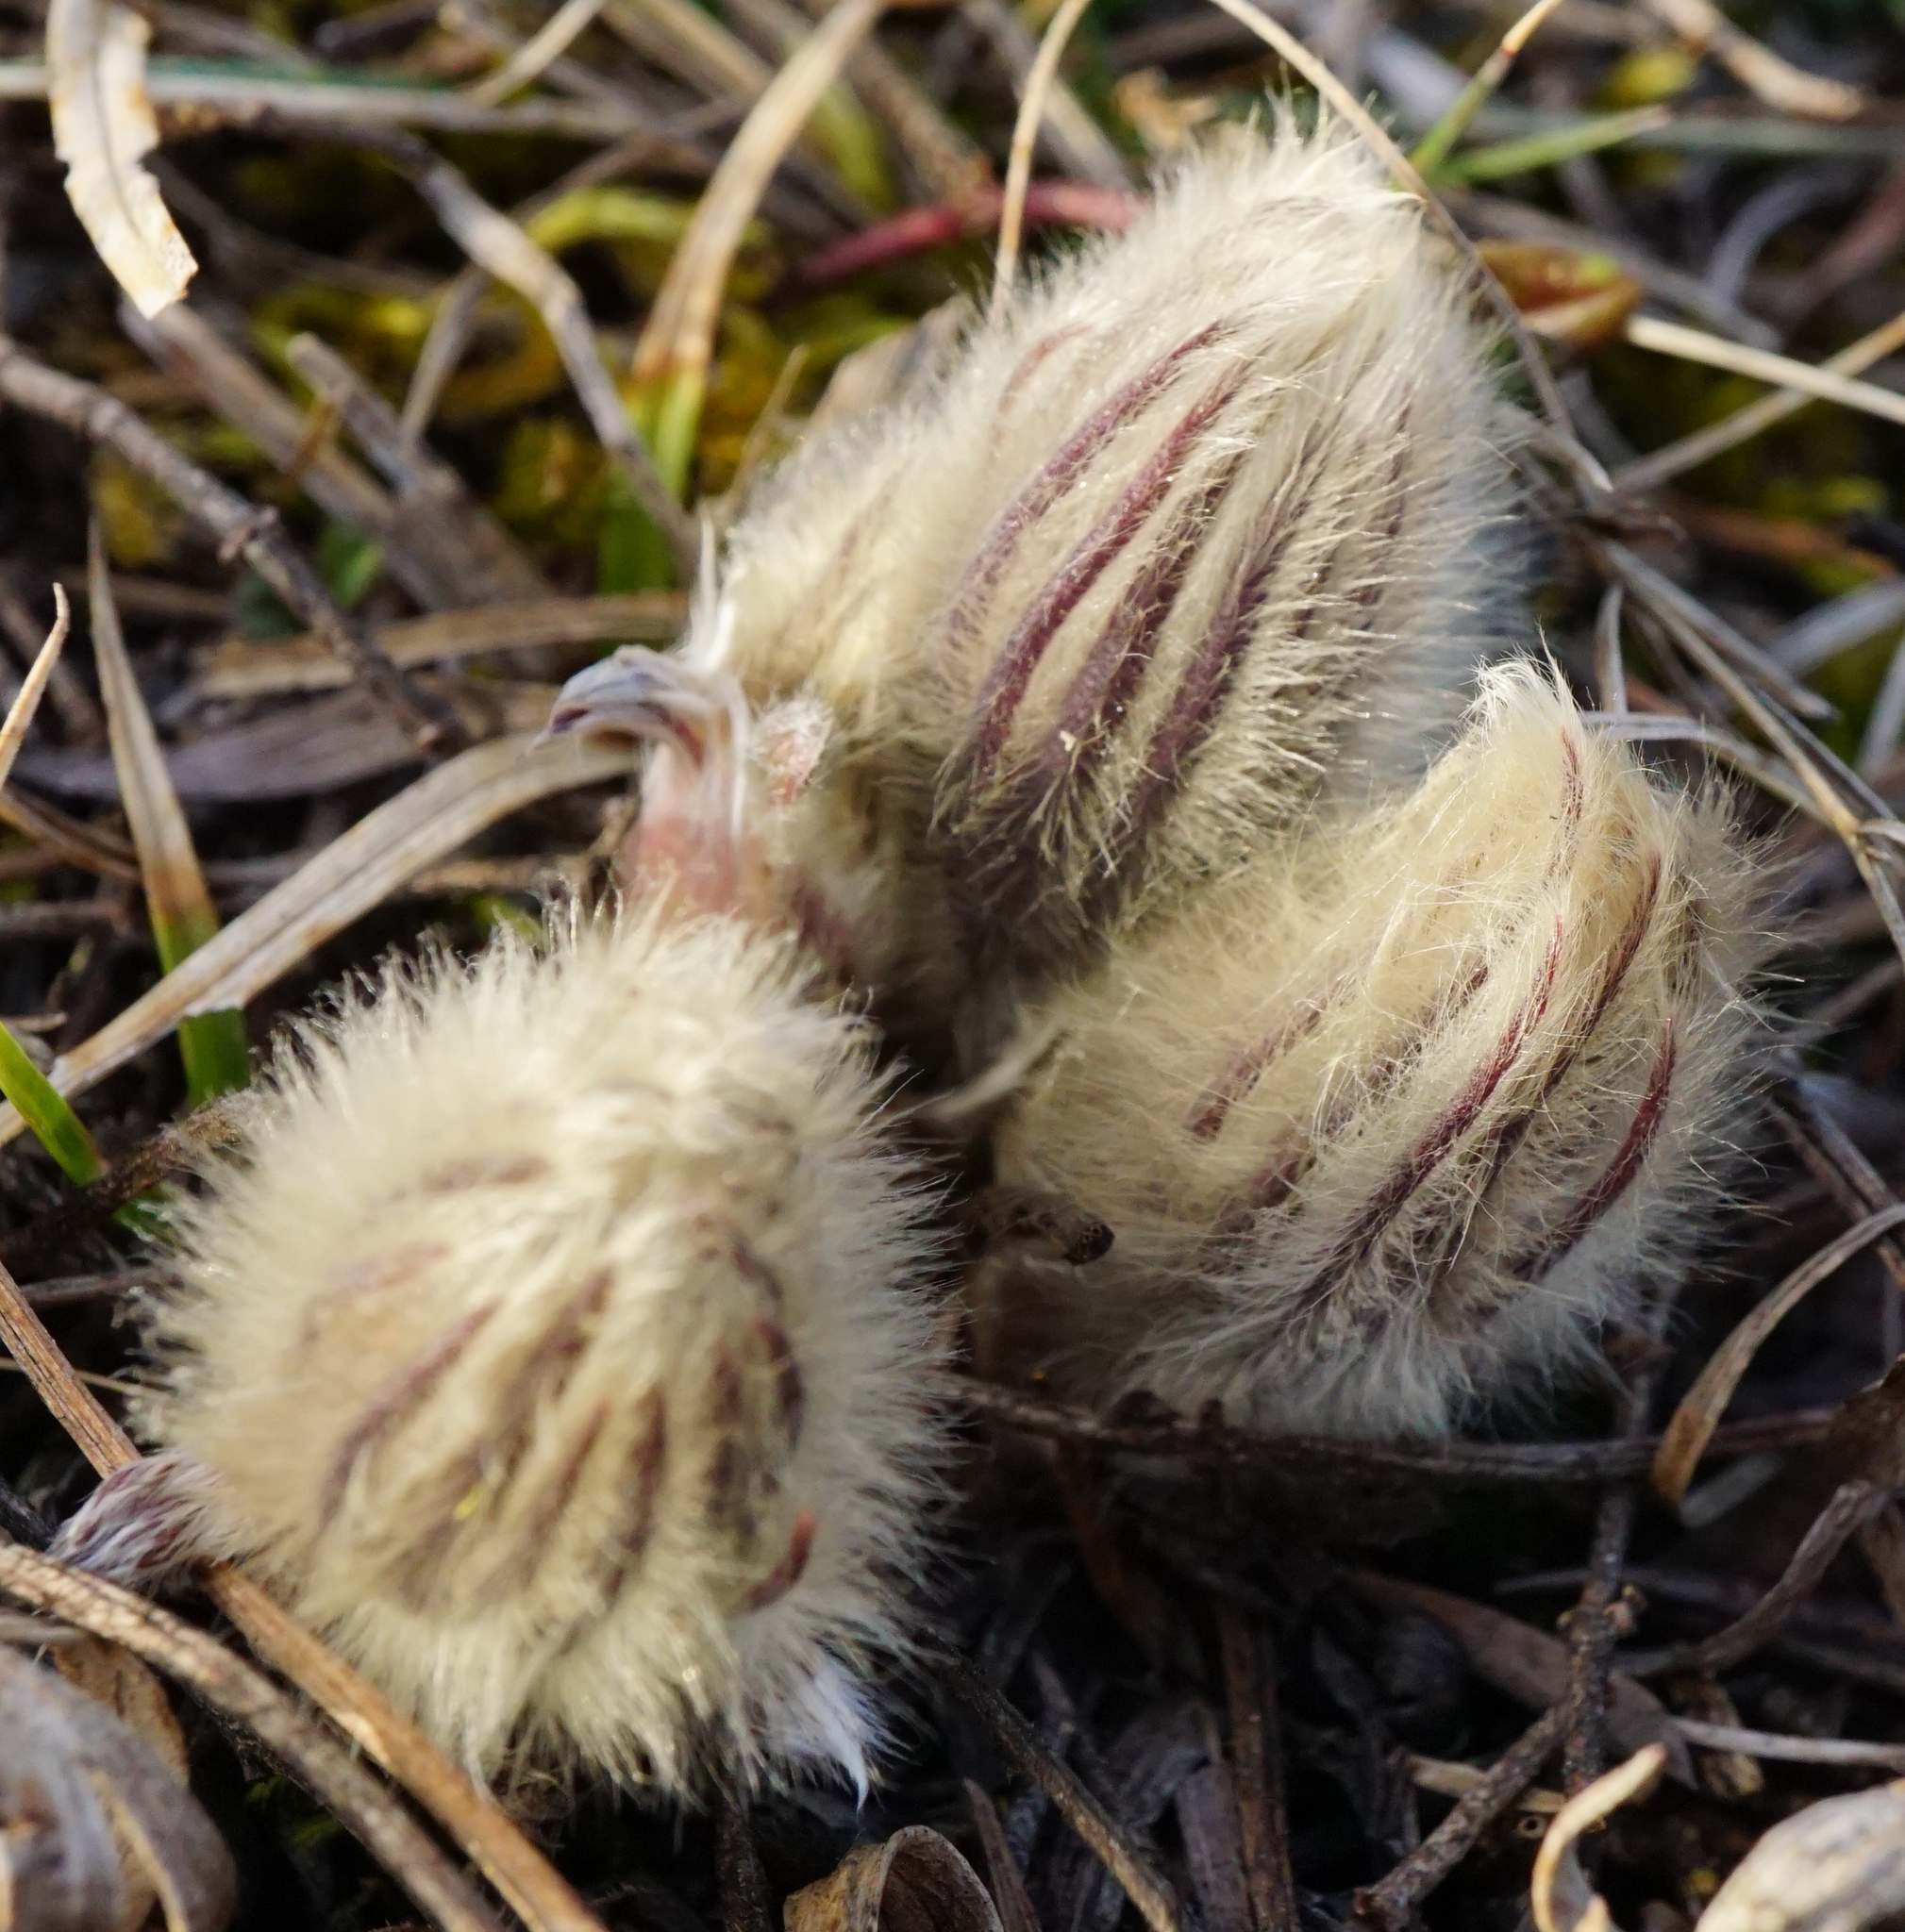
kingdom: Plantae
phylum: Tracheophyta
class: Magnoliopsida
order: Ranunculales
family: Ranunculaceae
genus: Pulsatilla
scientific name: Pulsatilla grandis
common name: Greater pasque flower
